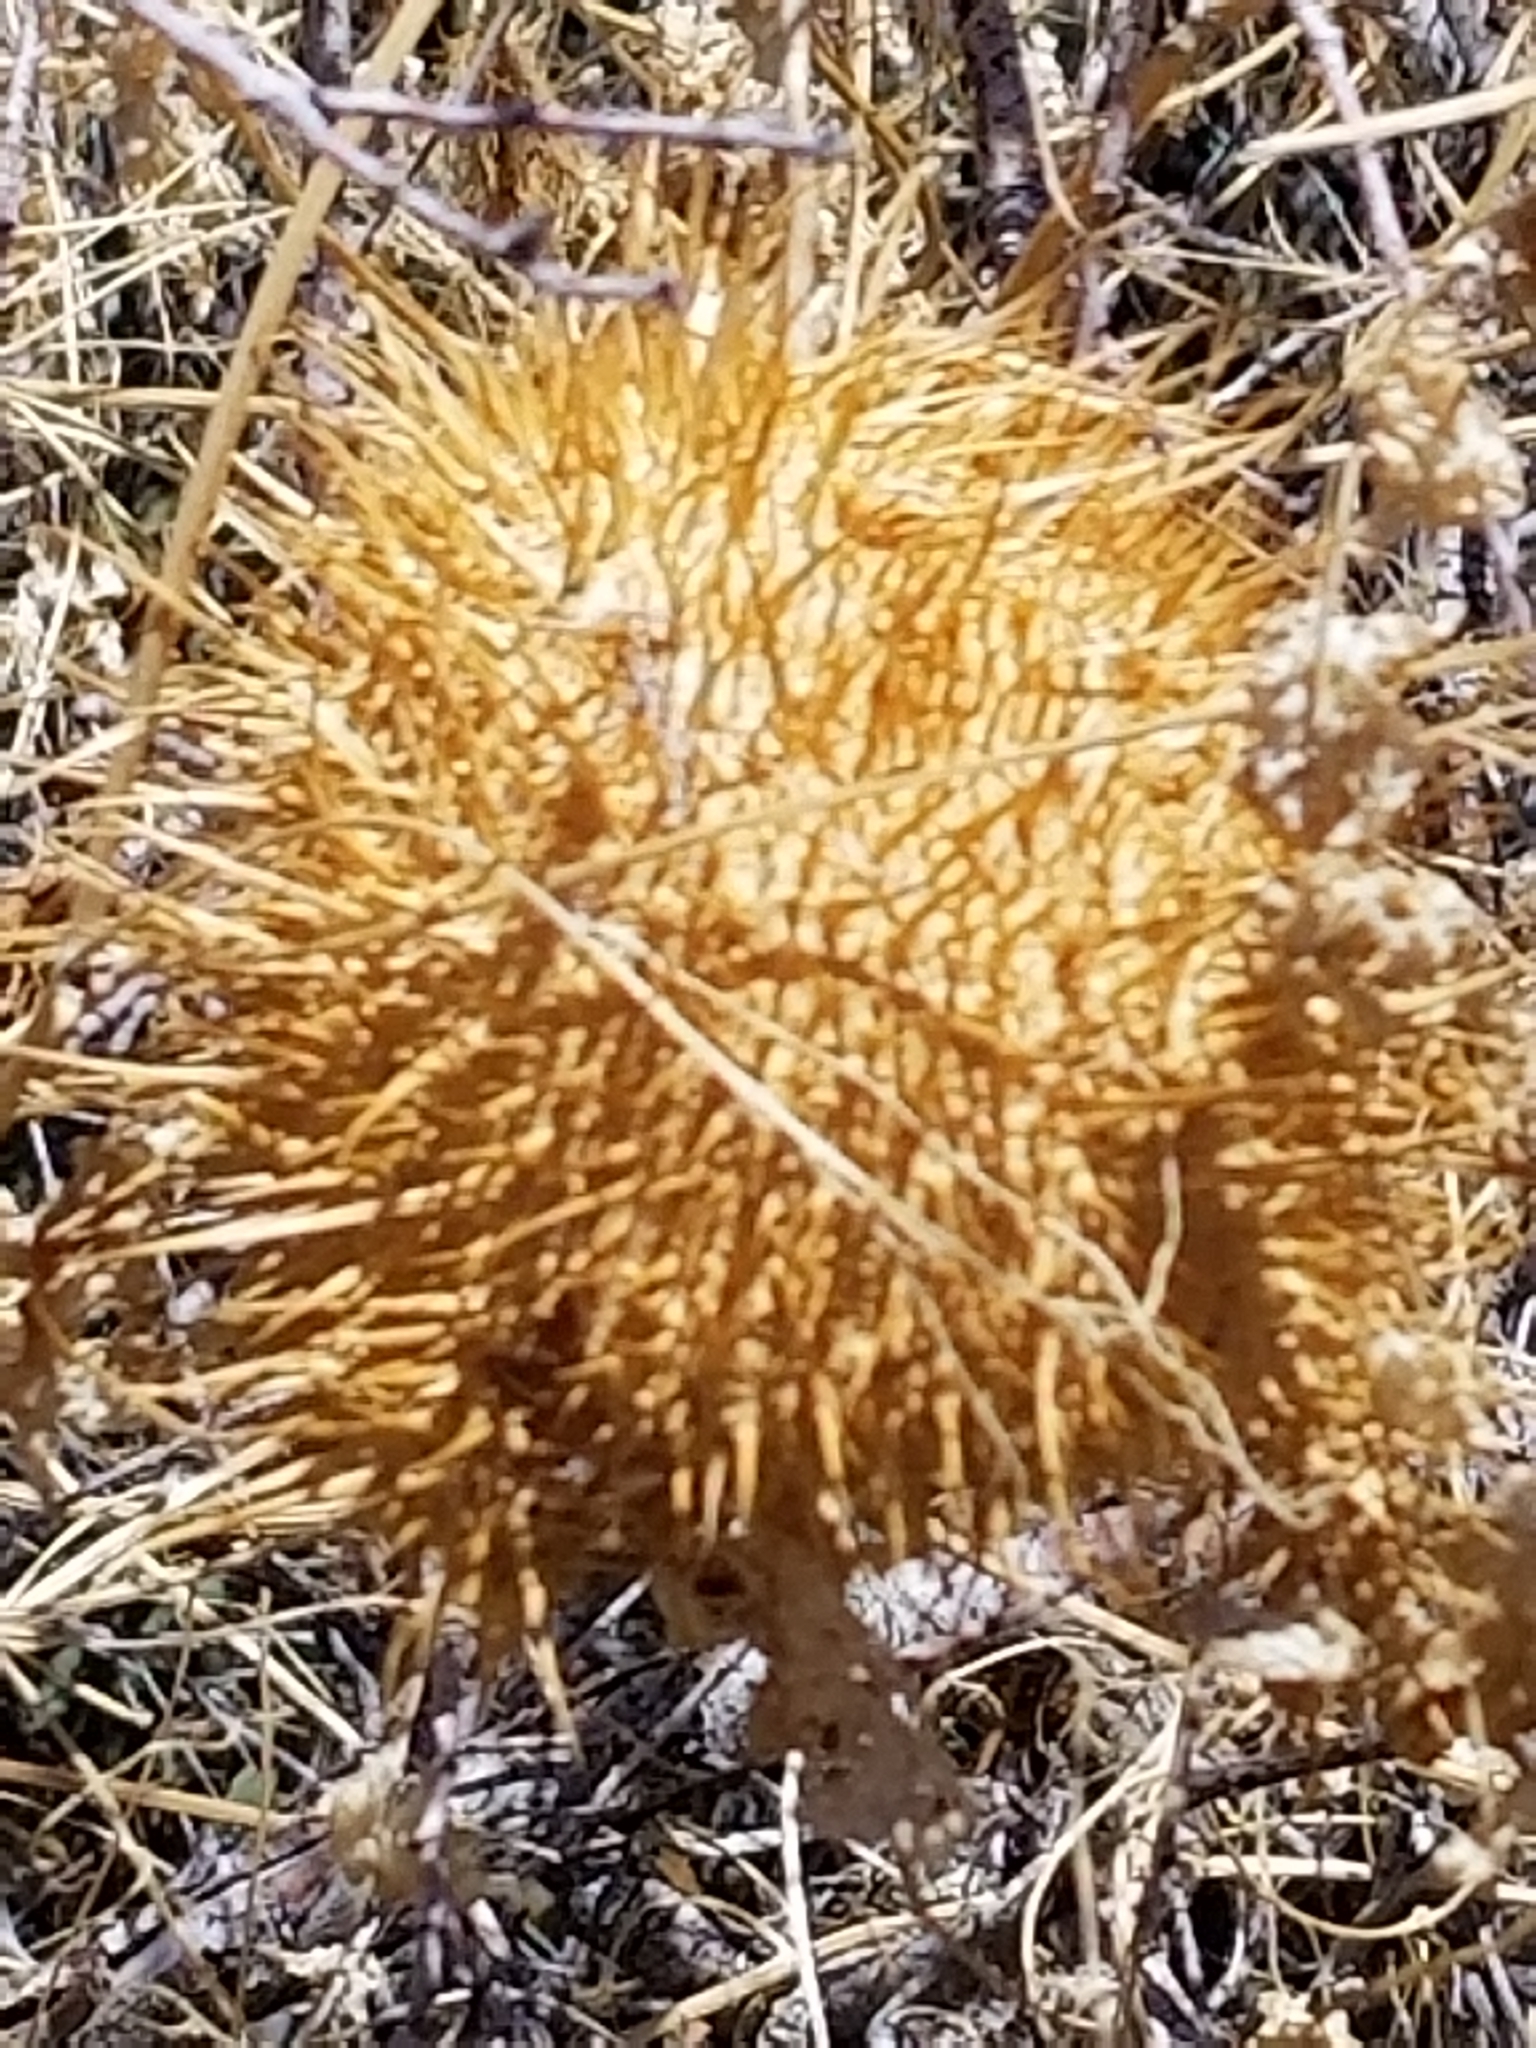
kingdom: Plantae
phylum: Tracheophyta
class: Magnoliopsida
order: Cucurbitales
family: Cucurbitaceae
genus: Marah
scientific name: Marah macrocarpa
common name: Cucamonga manroot
